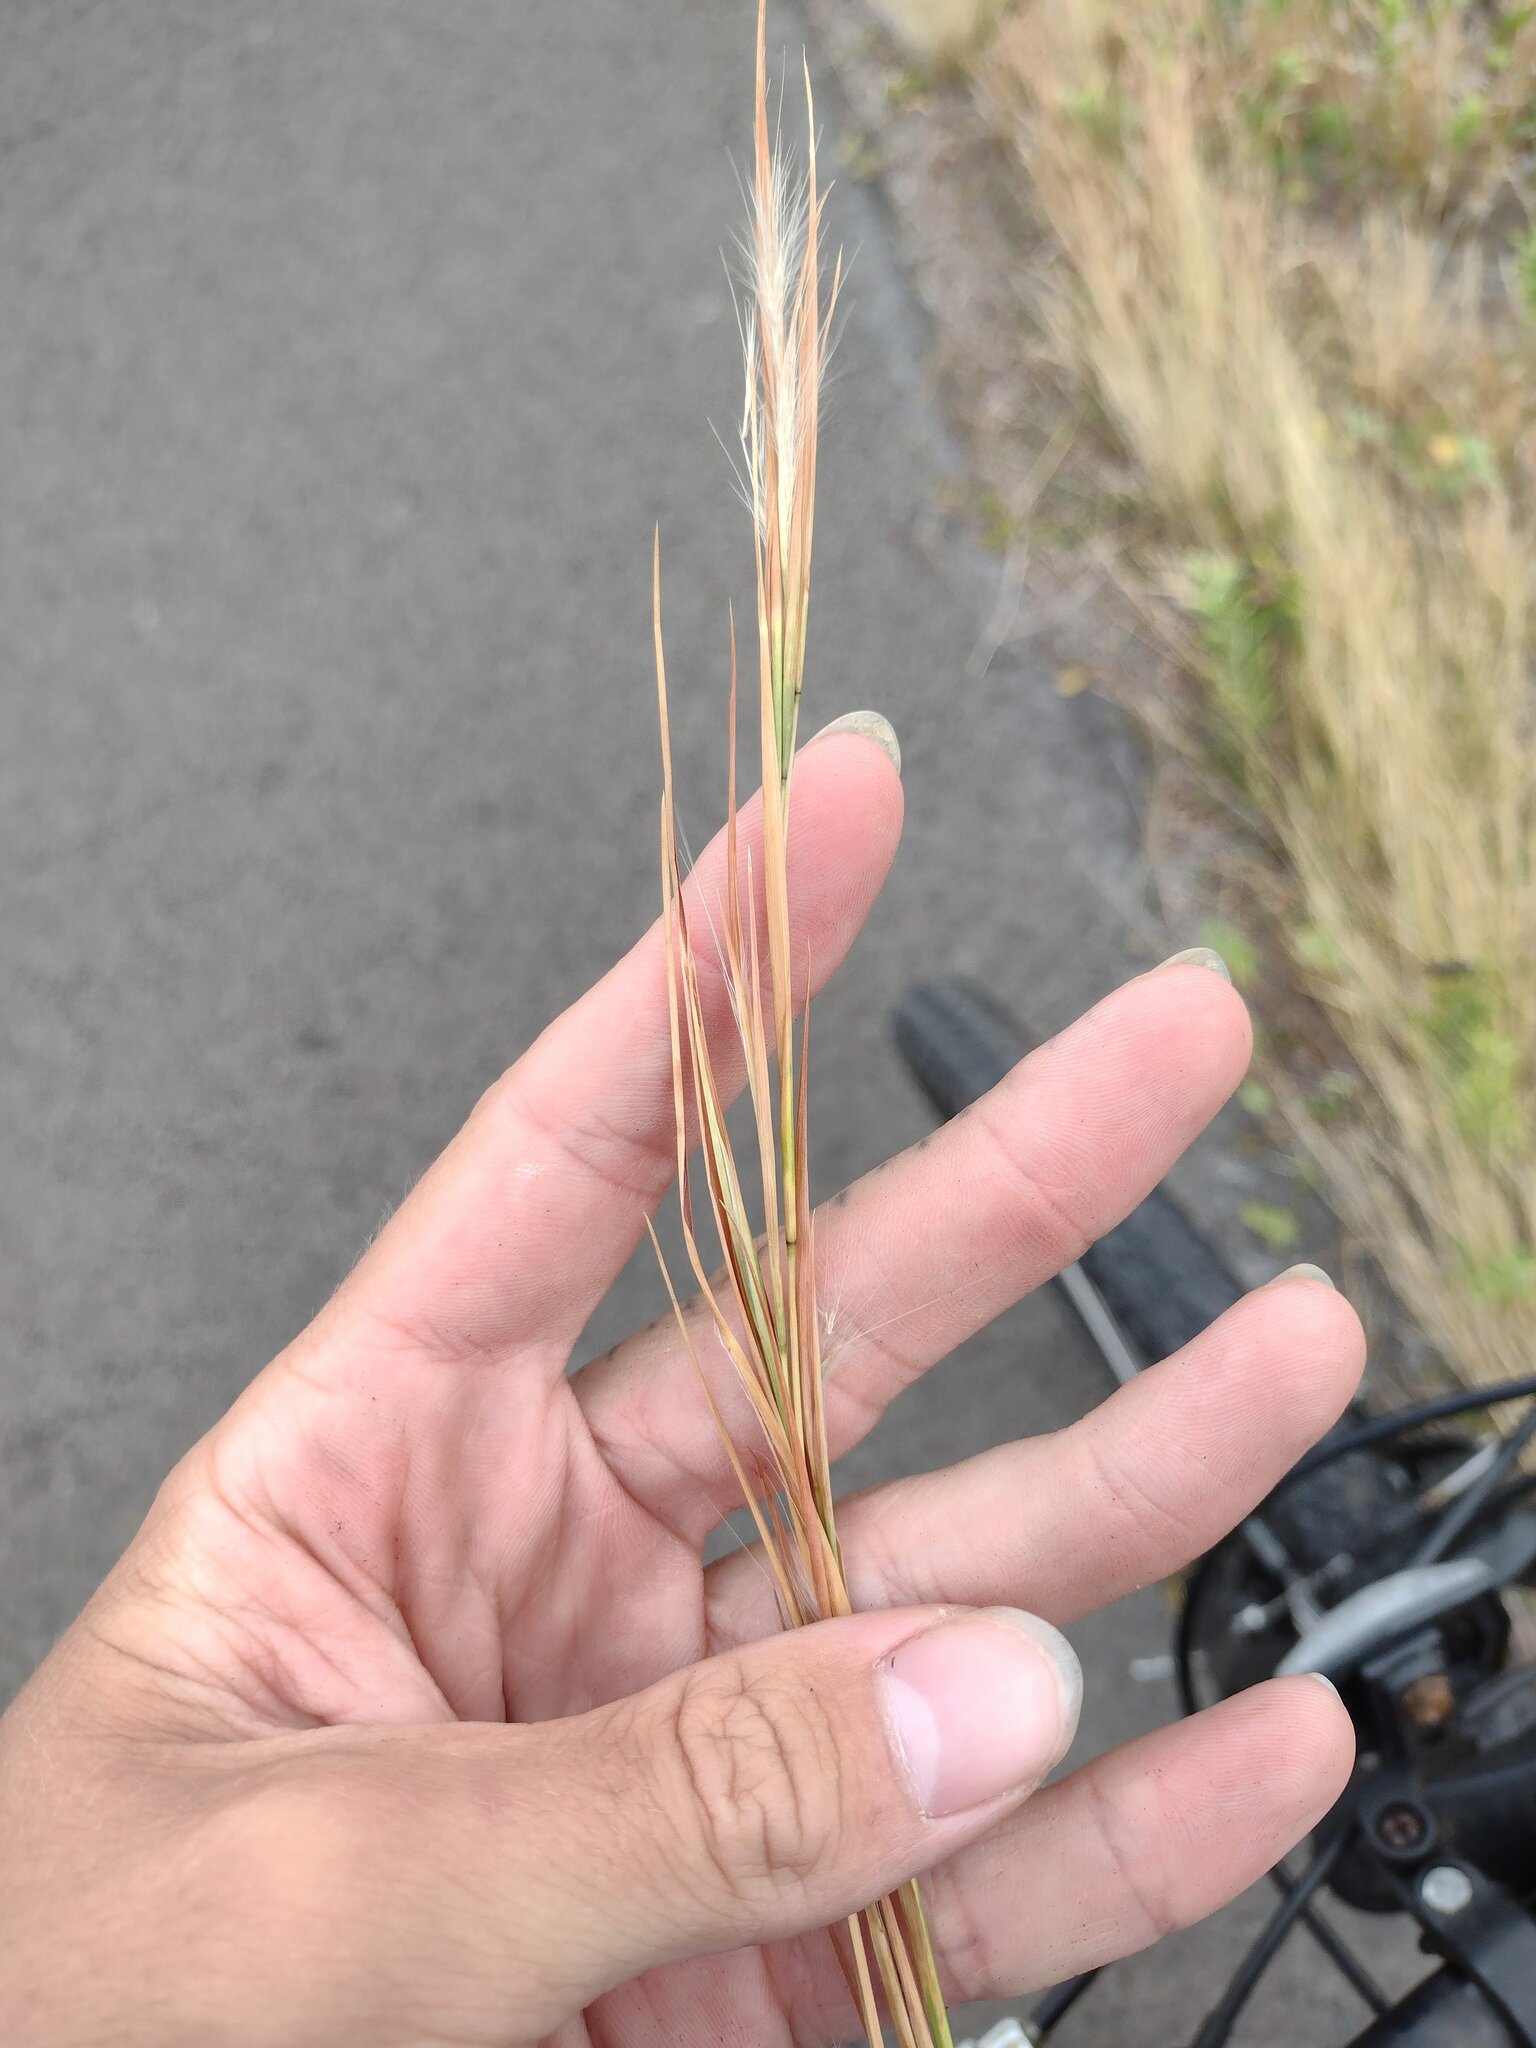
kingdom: Plantae
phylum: Tracheophyta
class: Liliopsida
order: Poales
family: Poaceae
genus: Andropogon
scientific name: Andropogon virginicus
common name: Broomsedge bluestem
